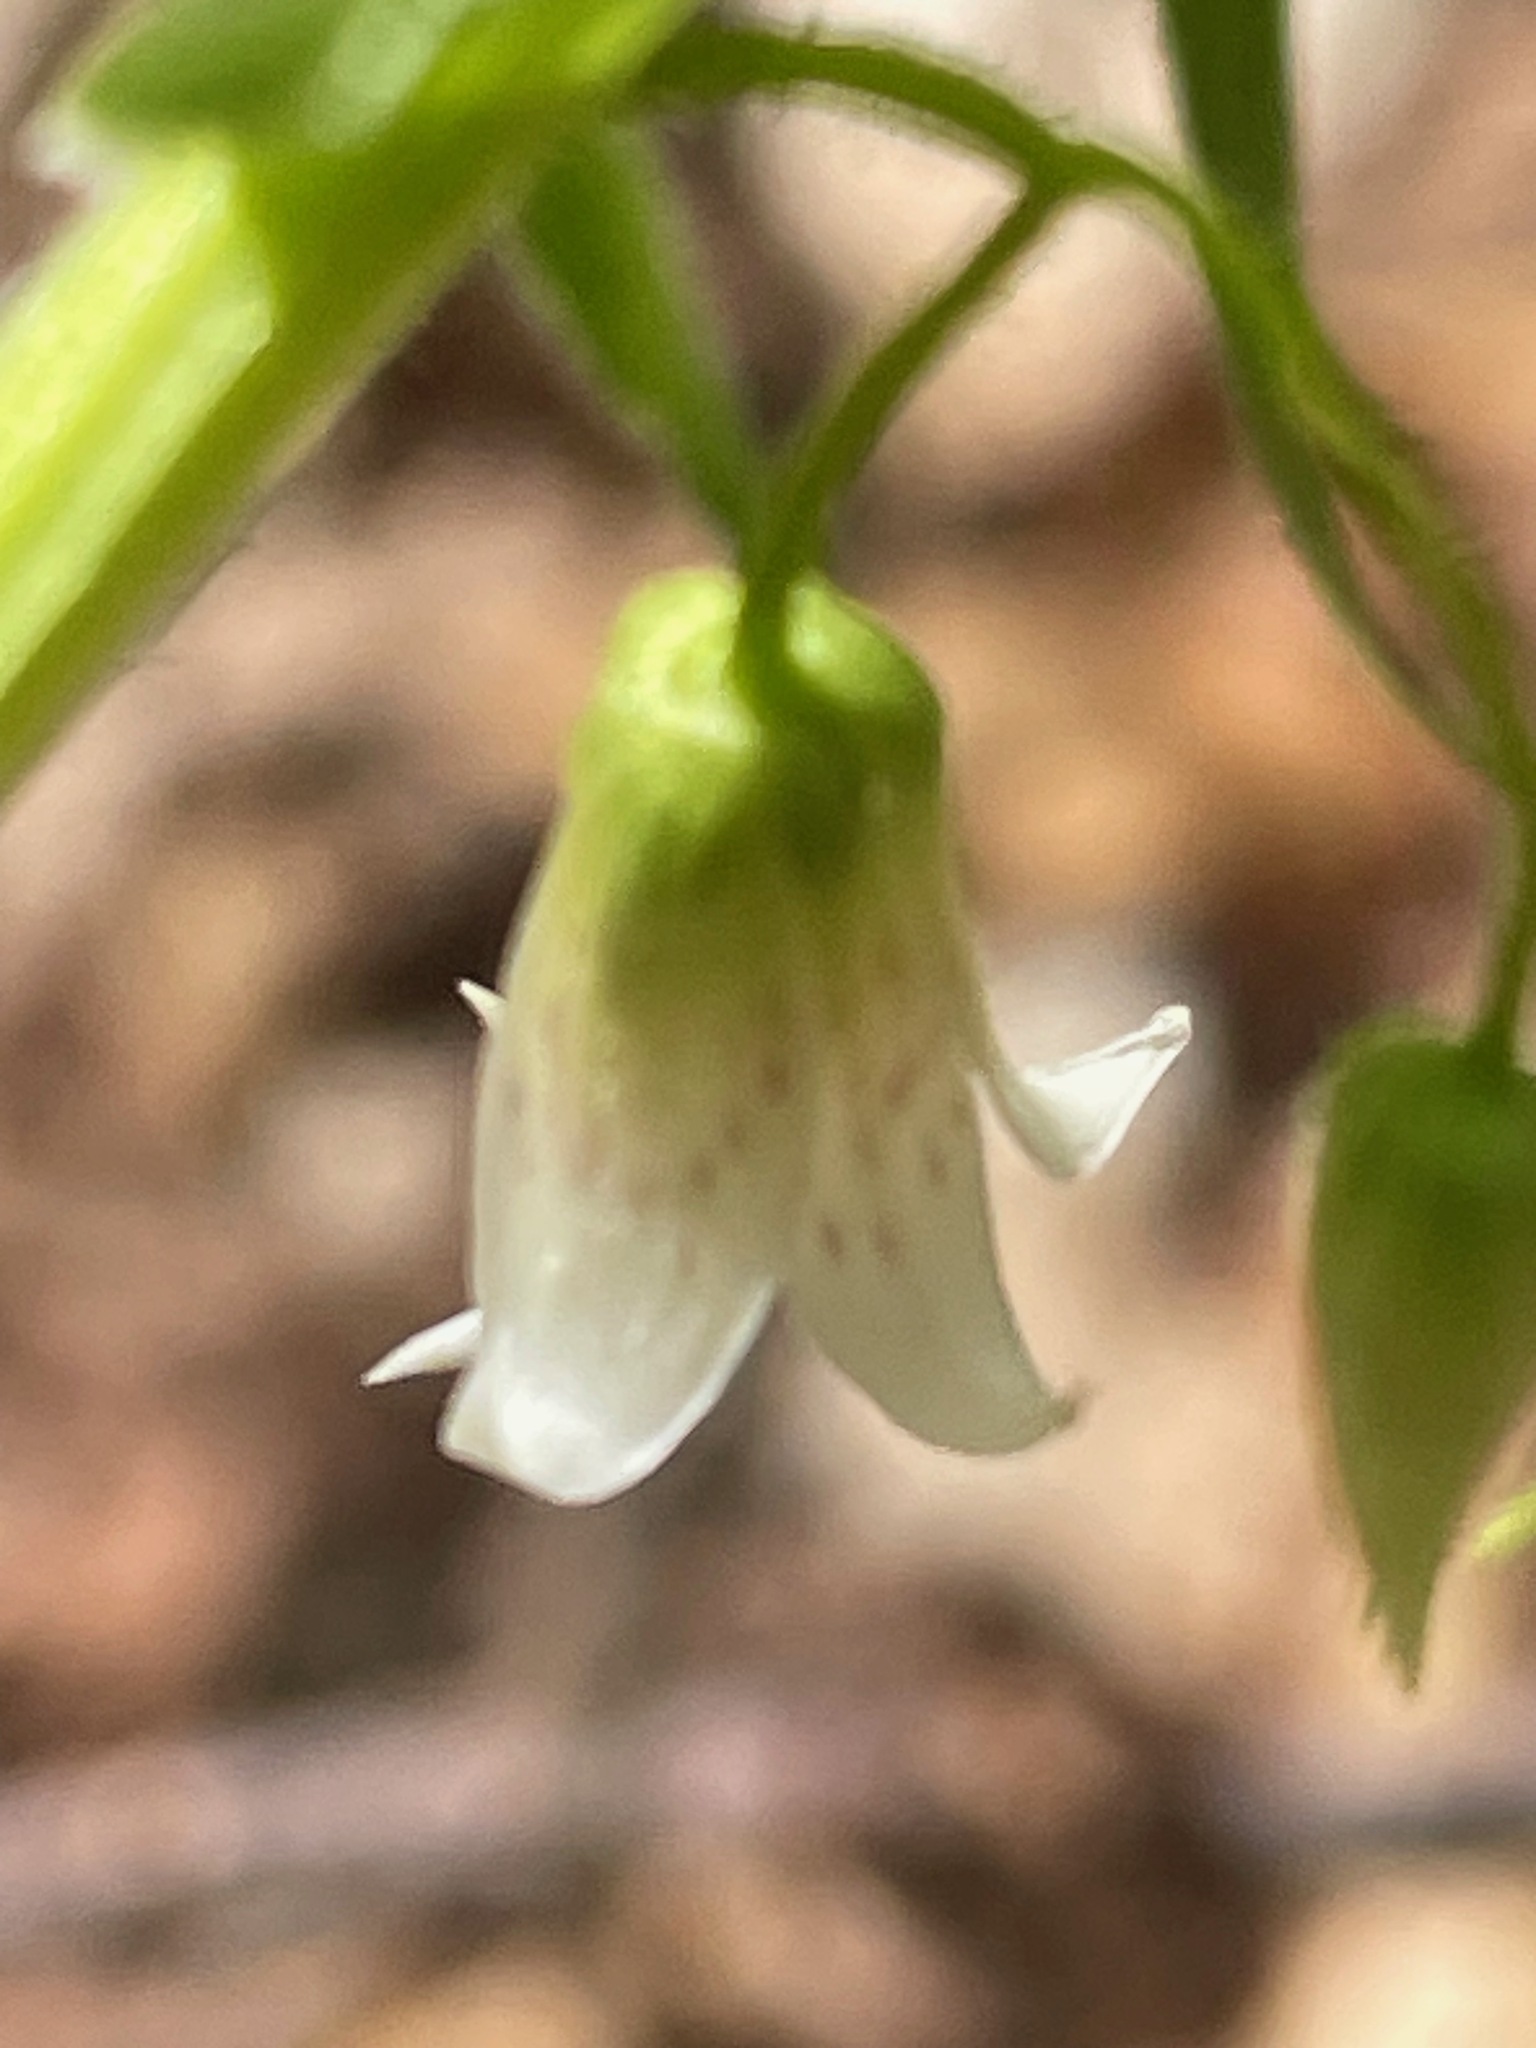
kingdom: Plantae
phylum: Tracheophyta
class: Liliopsida
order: Liliales
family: Liliaceae
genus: Streptopus
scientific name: Streptopus lanceolatus
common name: Rose mandarin
